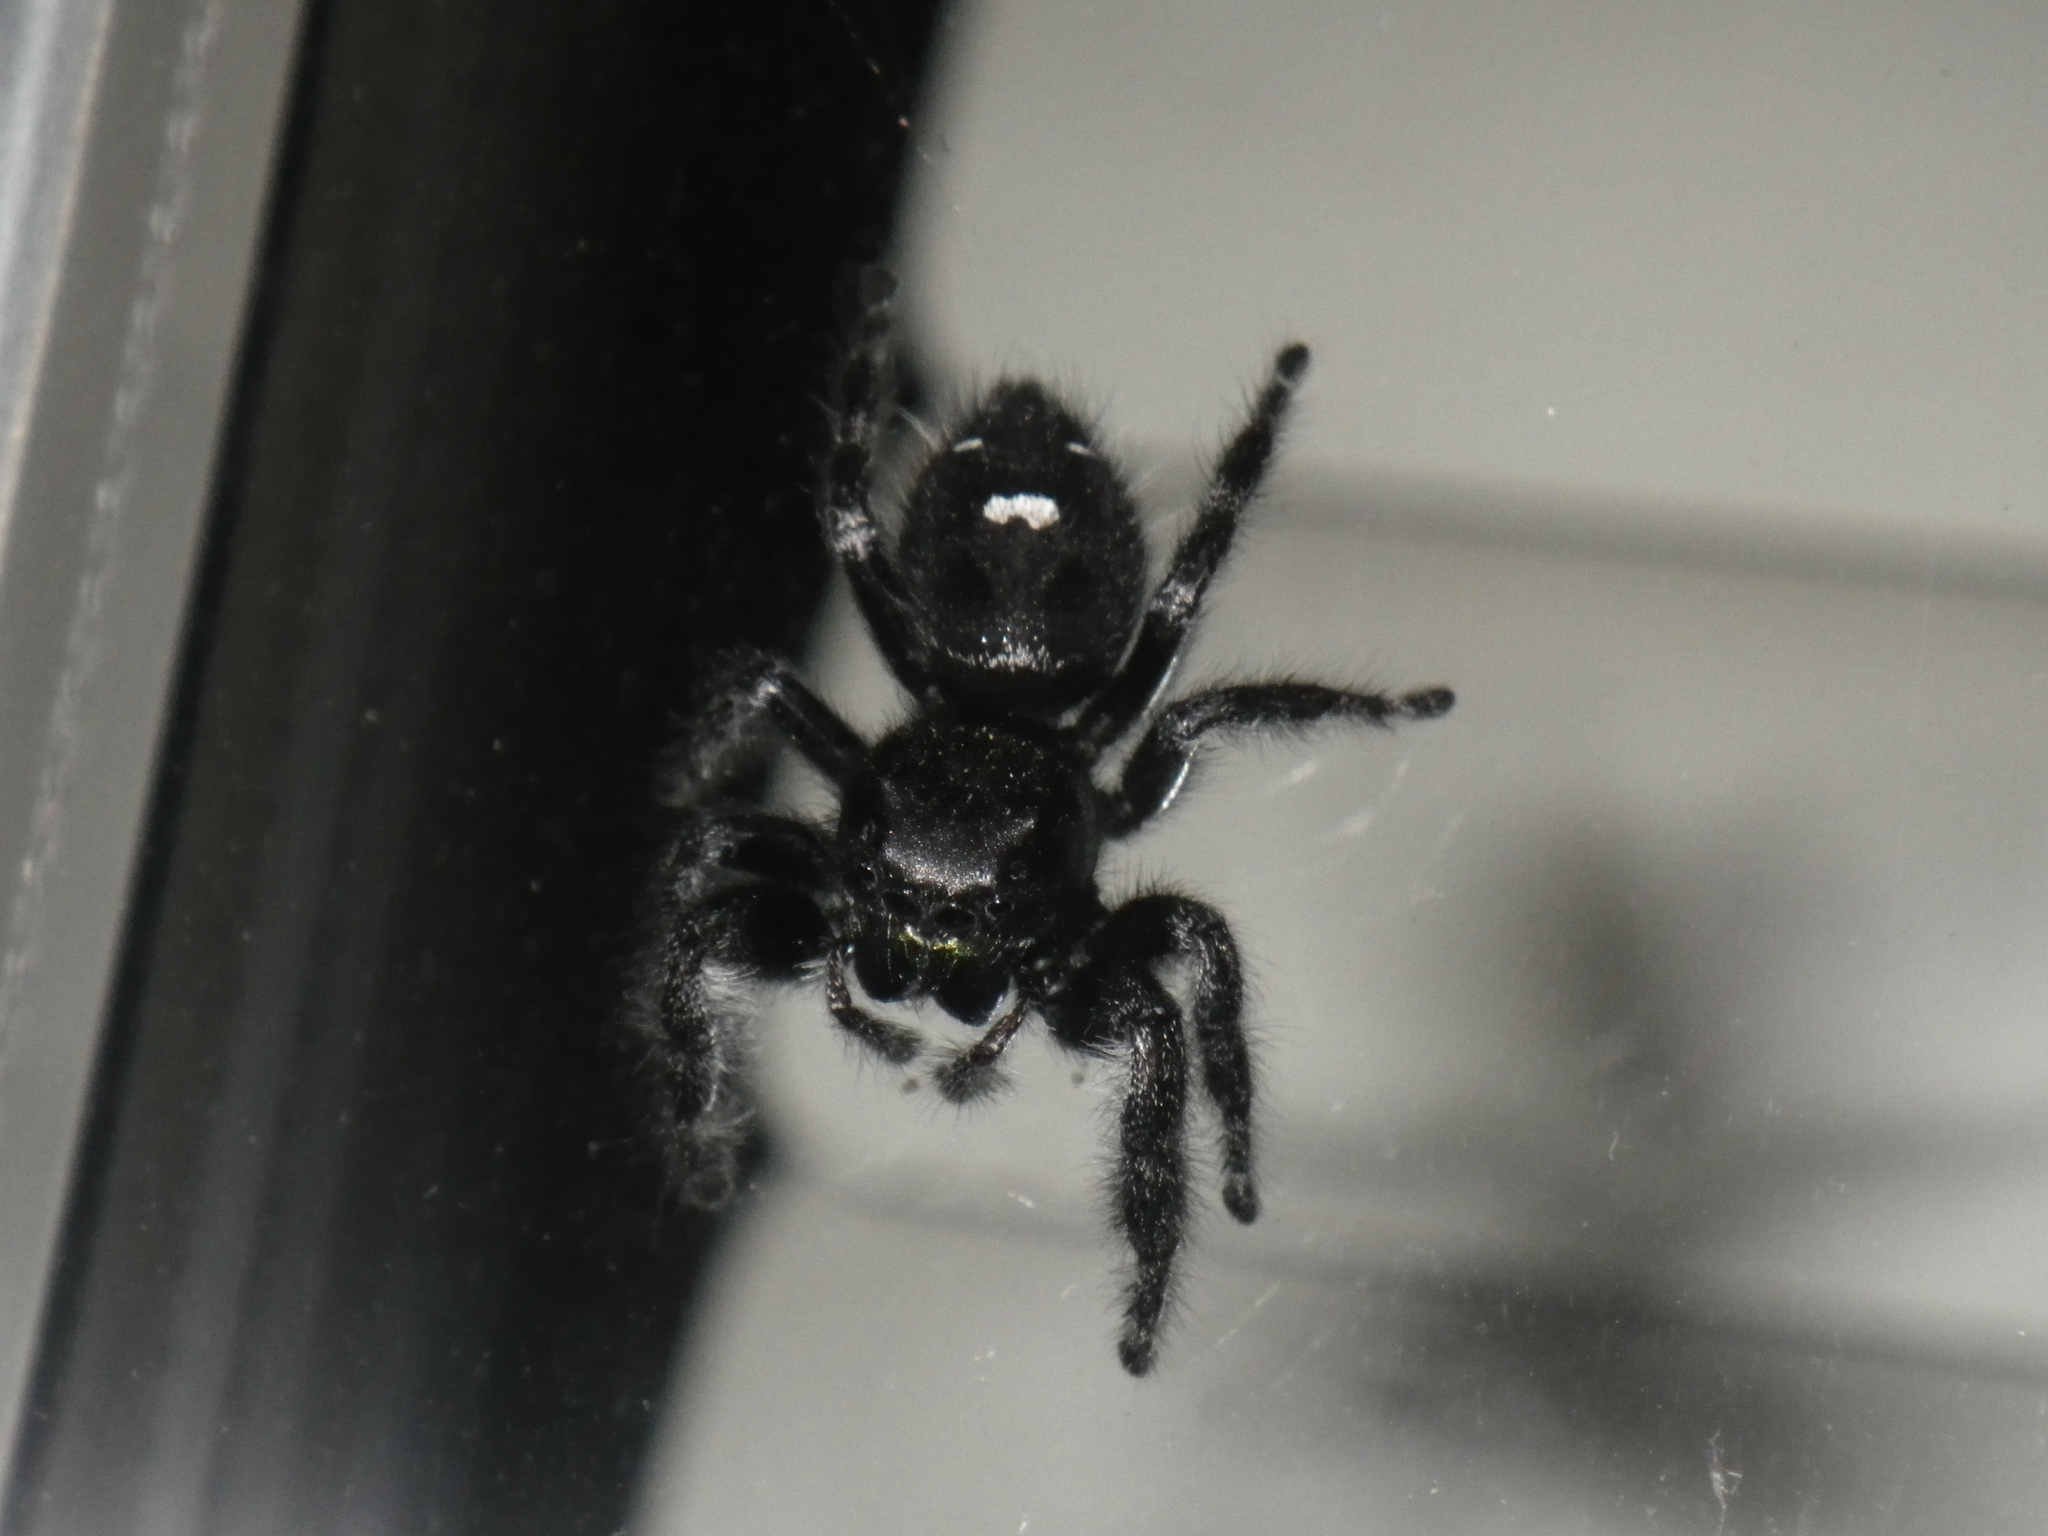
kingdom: Animalia
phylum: Arthropoda
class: Arachnida
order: Araneae
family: Salticidae
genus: Phidippus
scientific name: Phidippus audax
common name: Bold jumper
